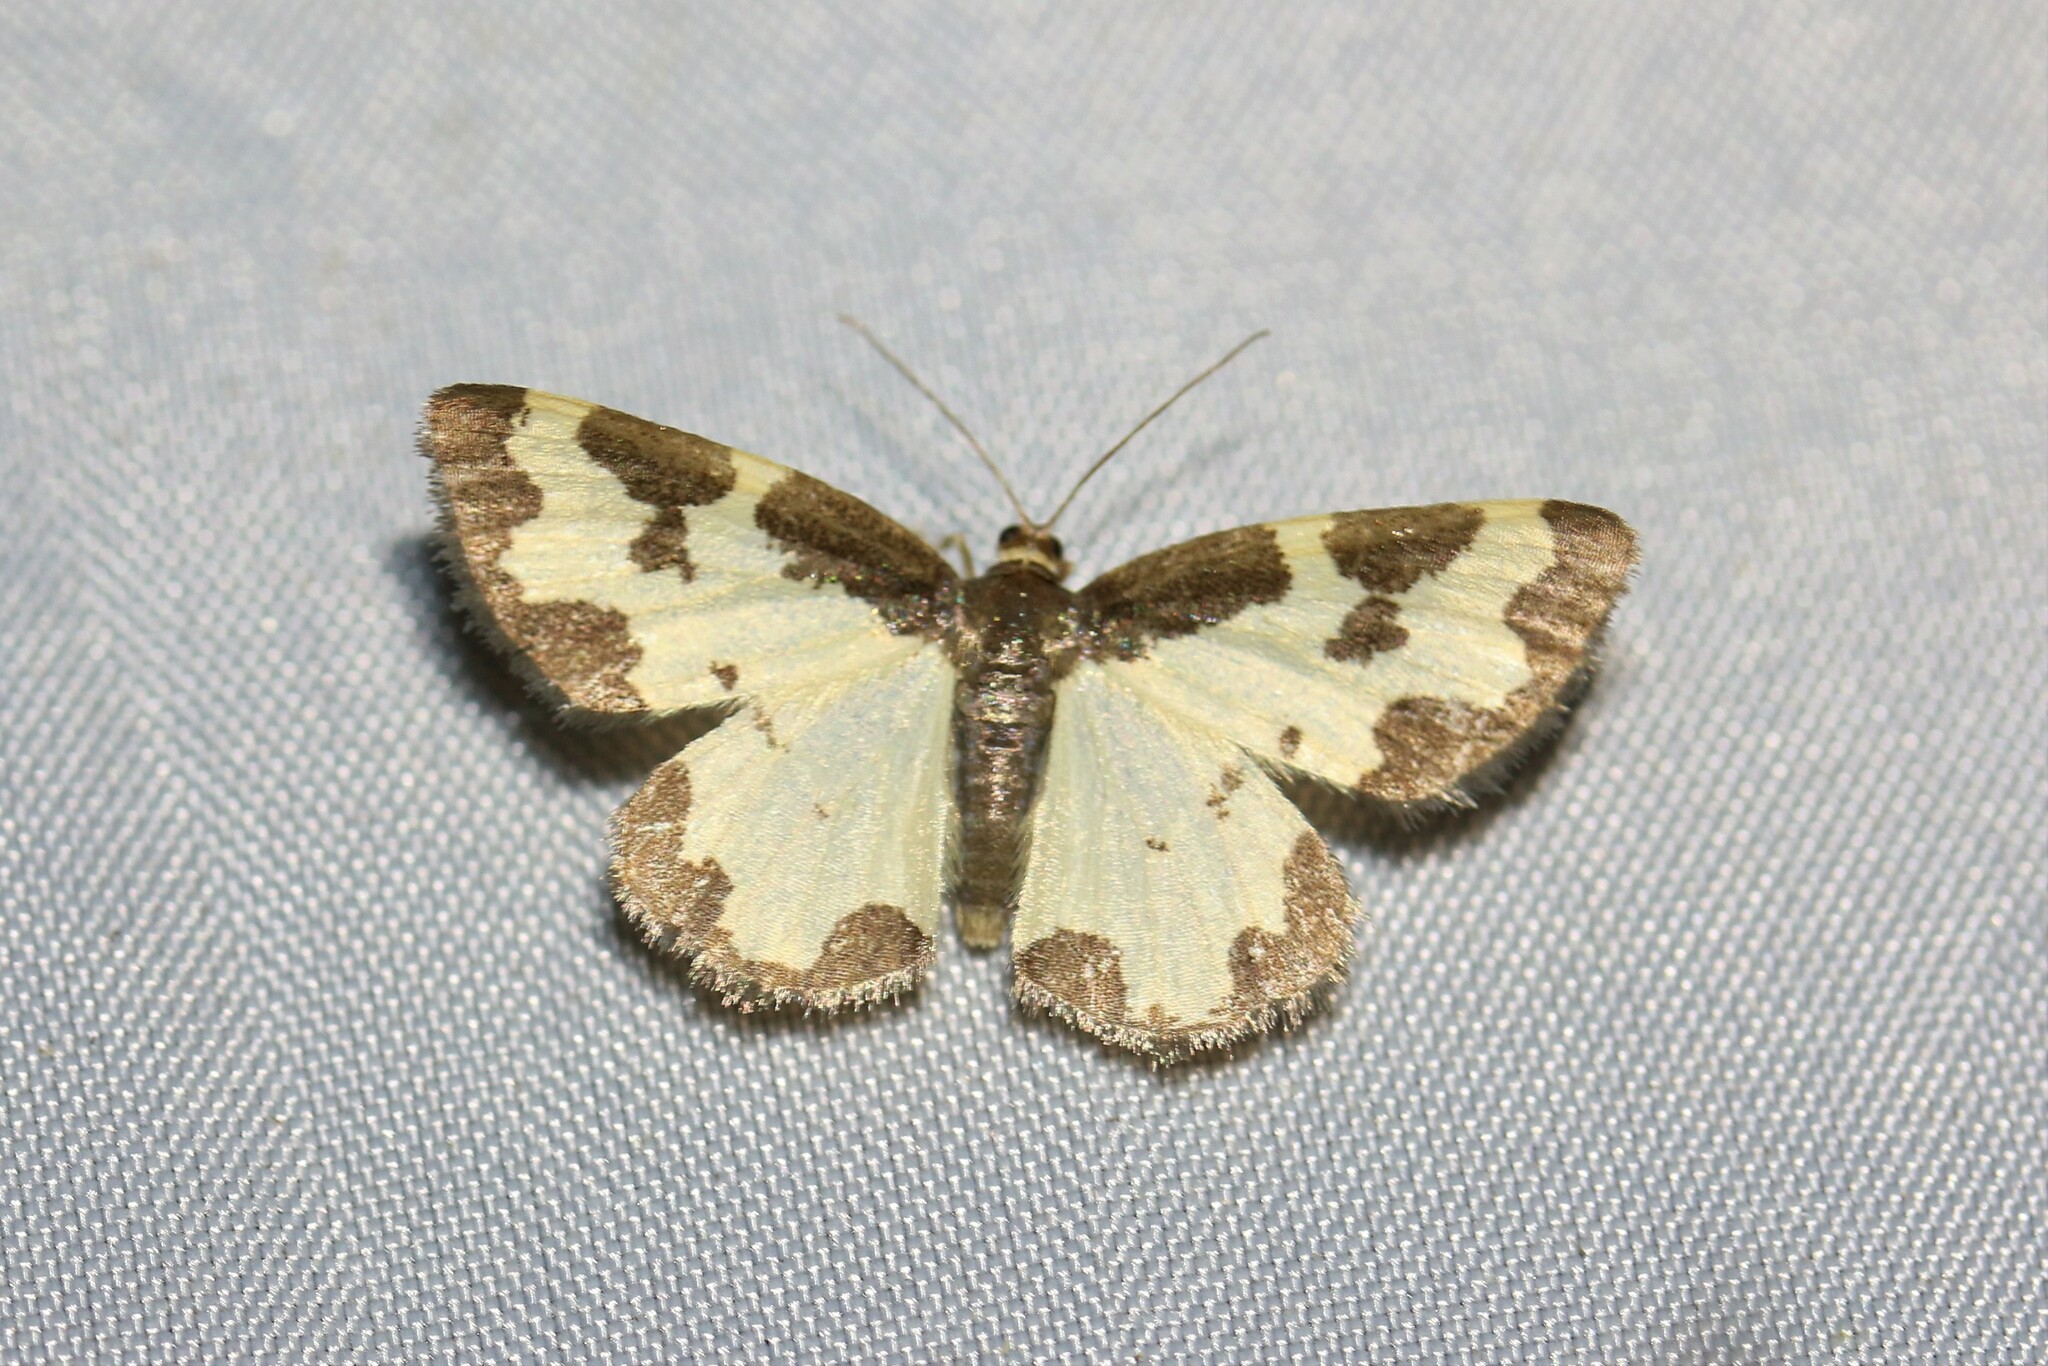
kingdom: Animalia
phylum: Arthropoda
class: Insecta
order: Lepidoptera
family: Geometridae
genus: Lomaspilis
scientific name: Lomaspilis marginata
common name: Clouded border
